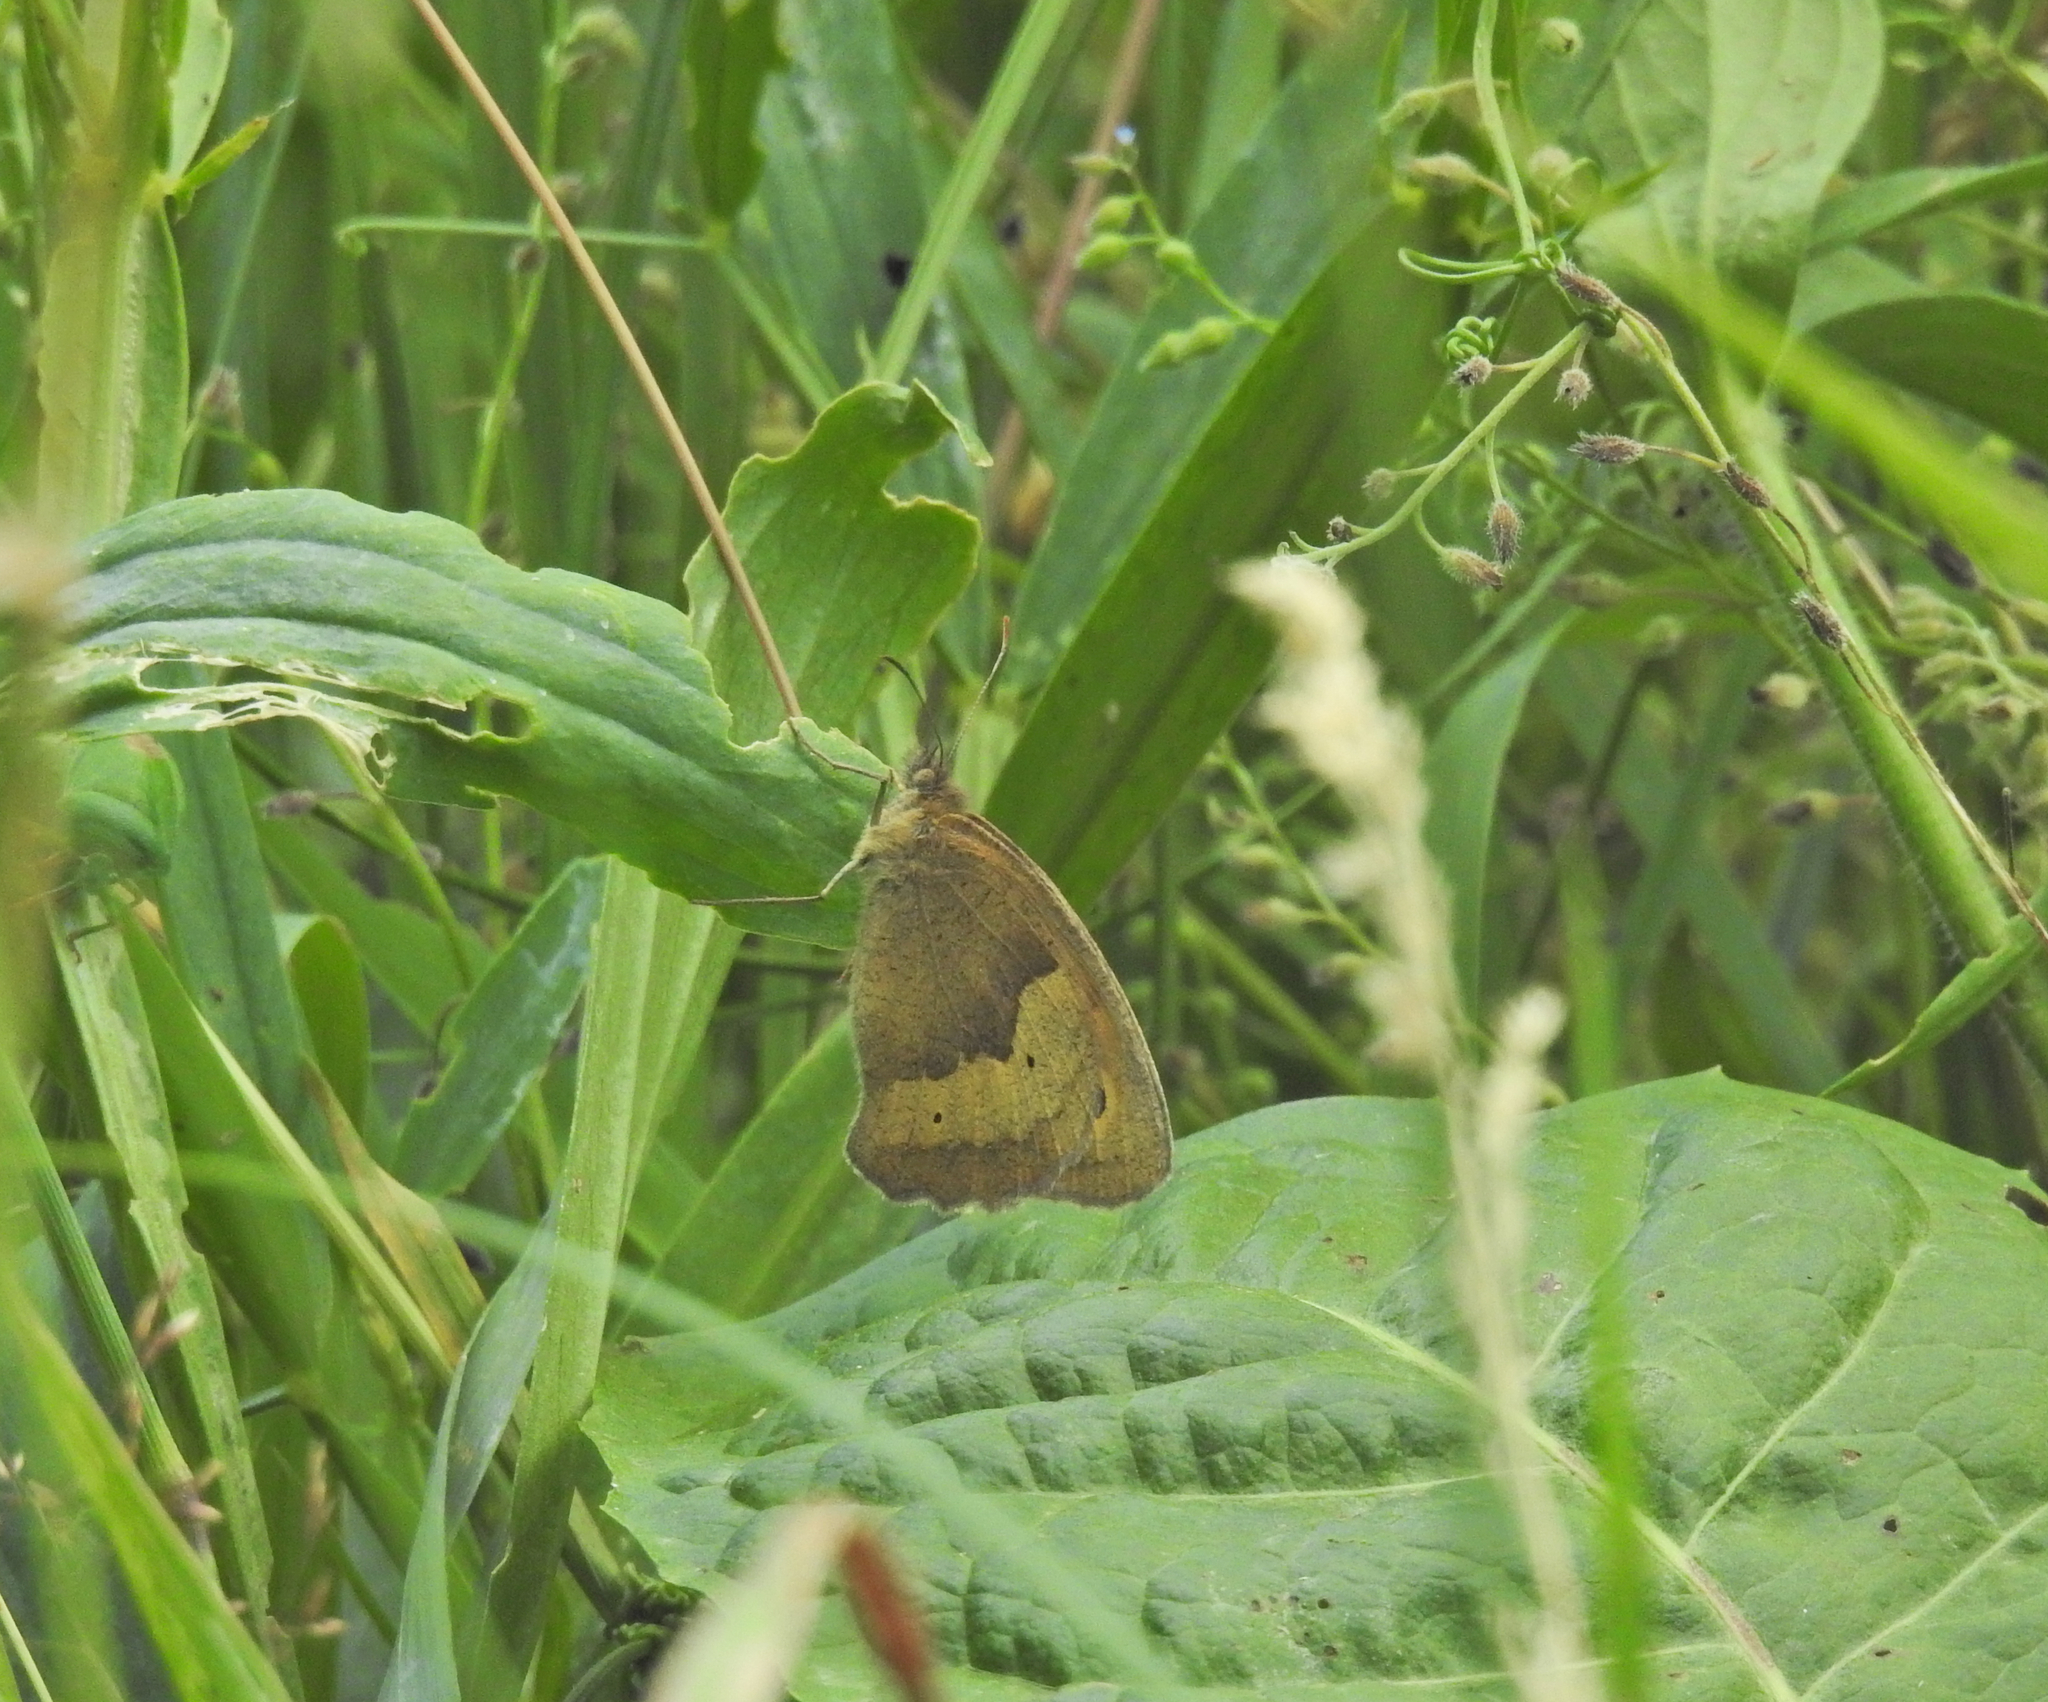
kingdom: Animalia
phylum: Arthropoda
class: Insecta
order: Lepidoptera
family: Nymphalidae
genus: Maniola
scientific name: Maniola jurtina
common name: Meadow brown
